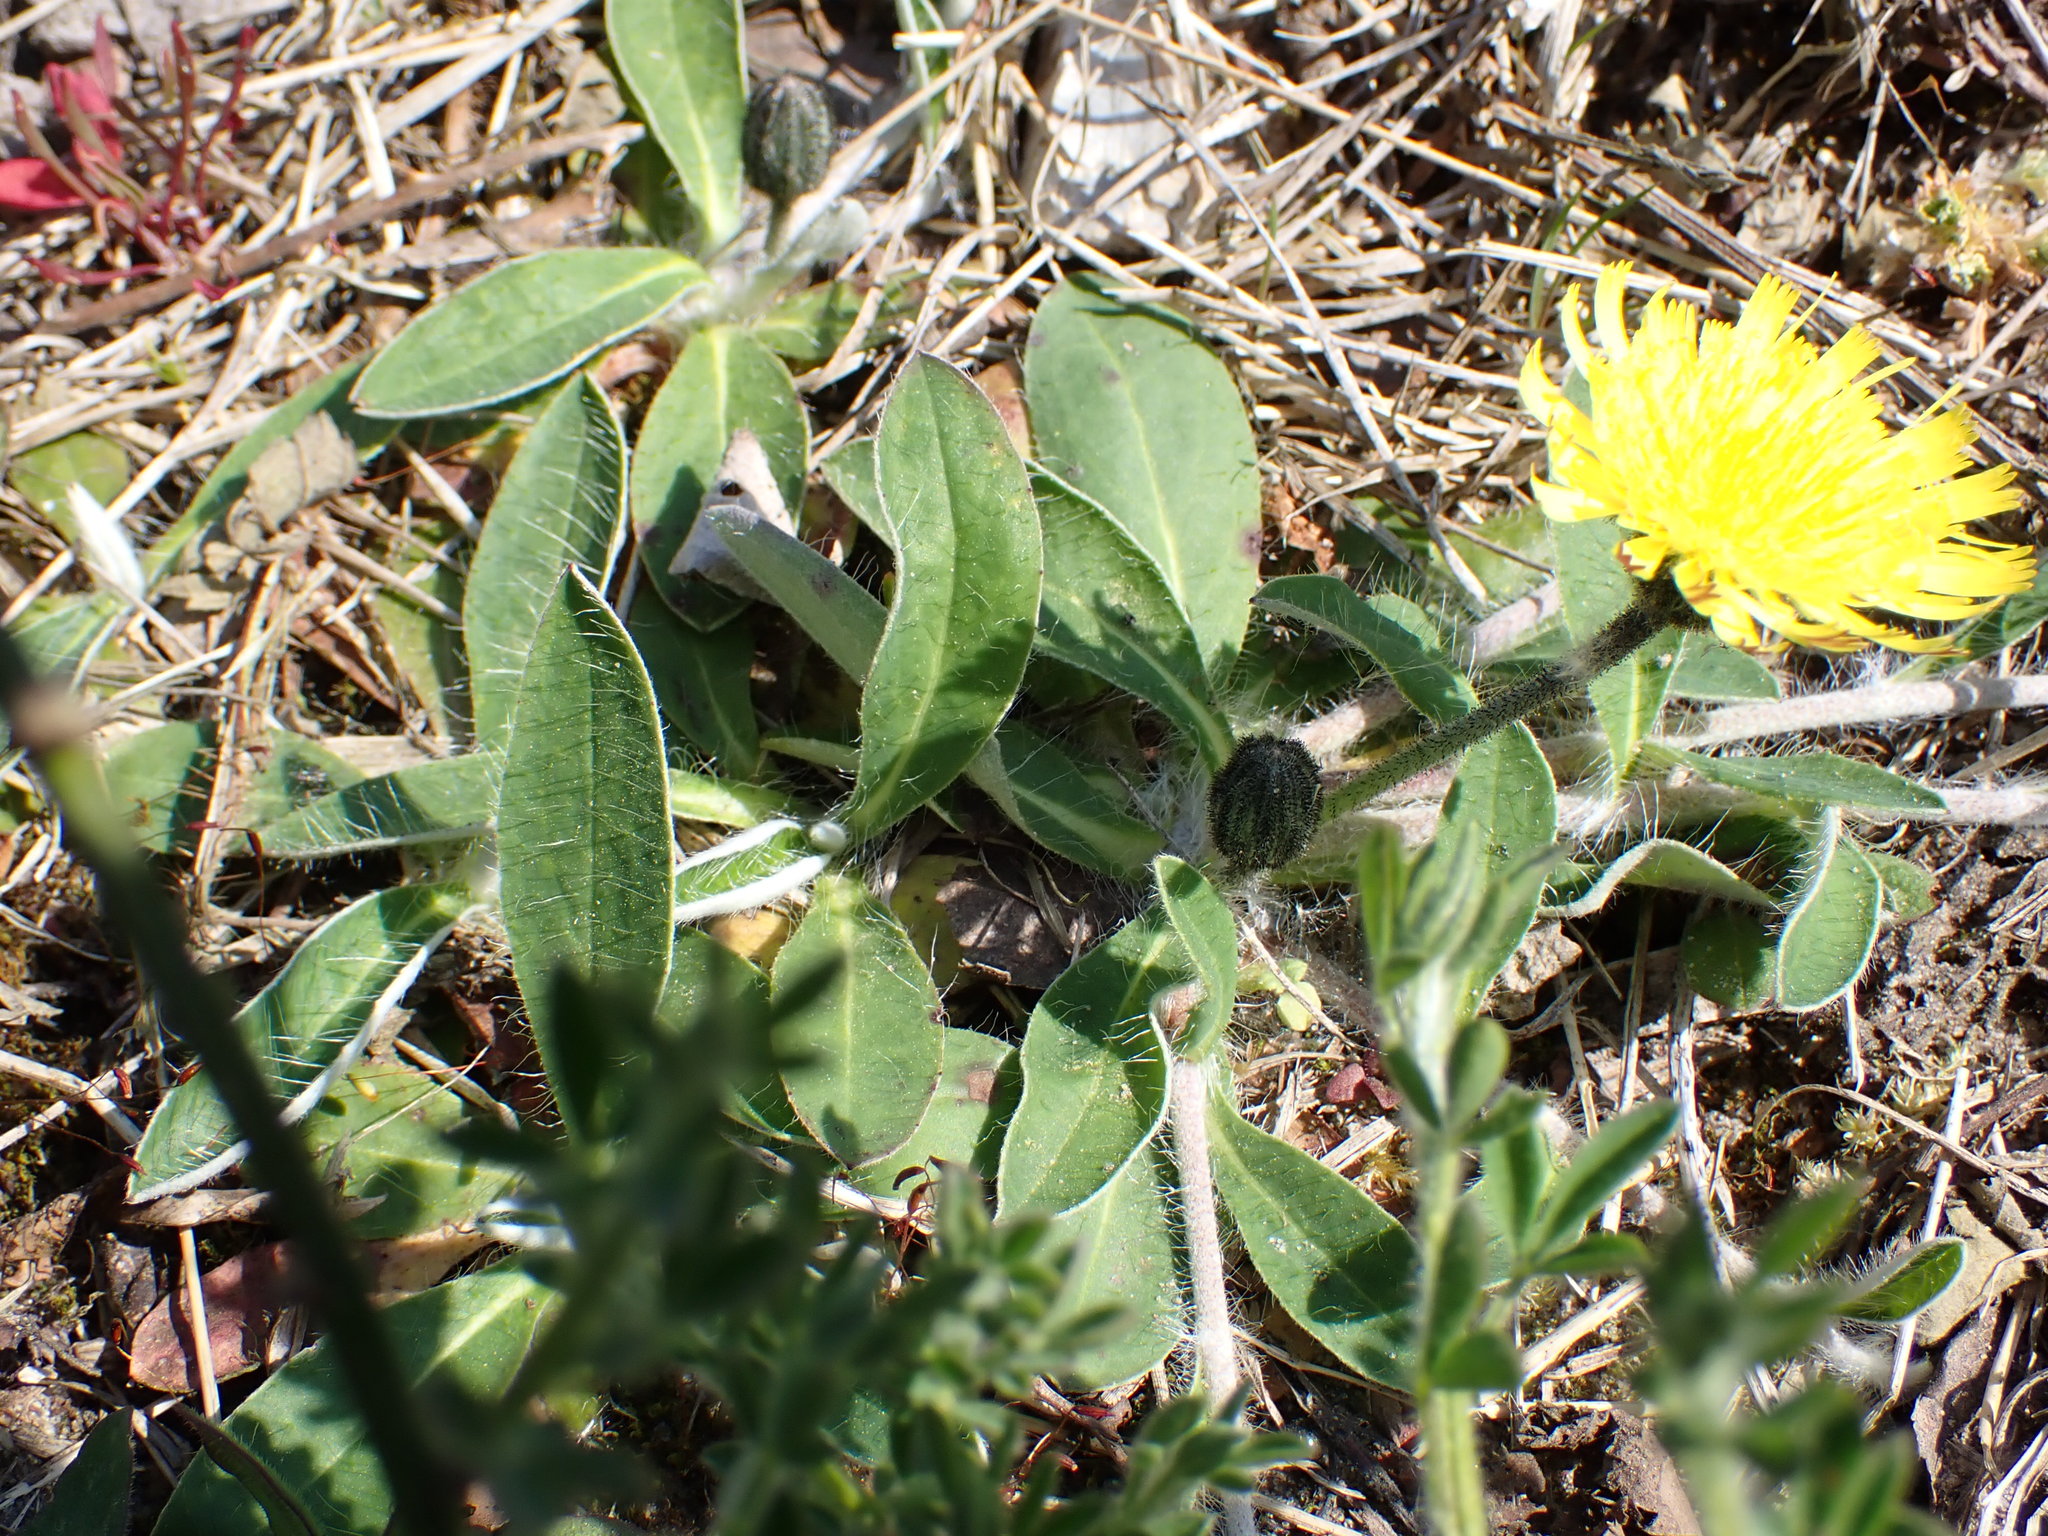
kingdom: Plantae
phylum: Tracheophyta
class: Magnoliopsida
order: Asterales
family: Asteraceae
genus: Pilosella
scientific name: Pilosella officinarum
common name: Mouse-ear hawkweed
